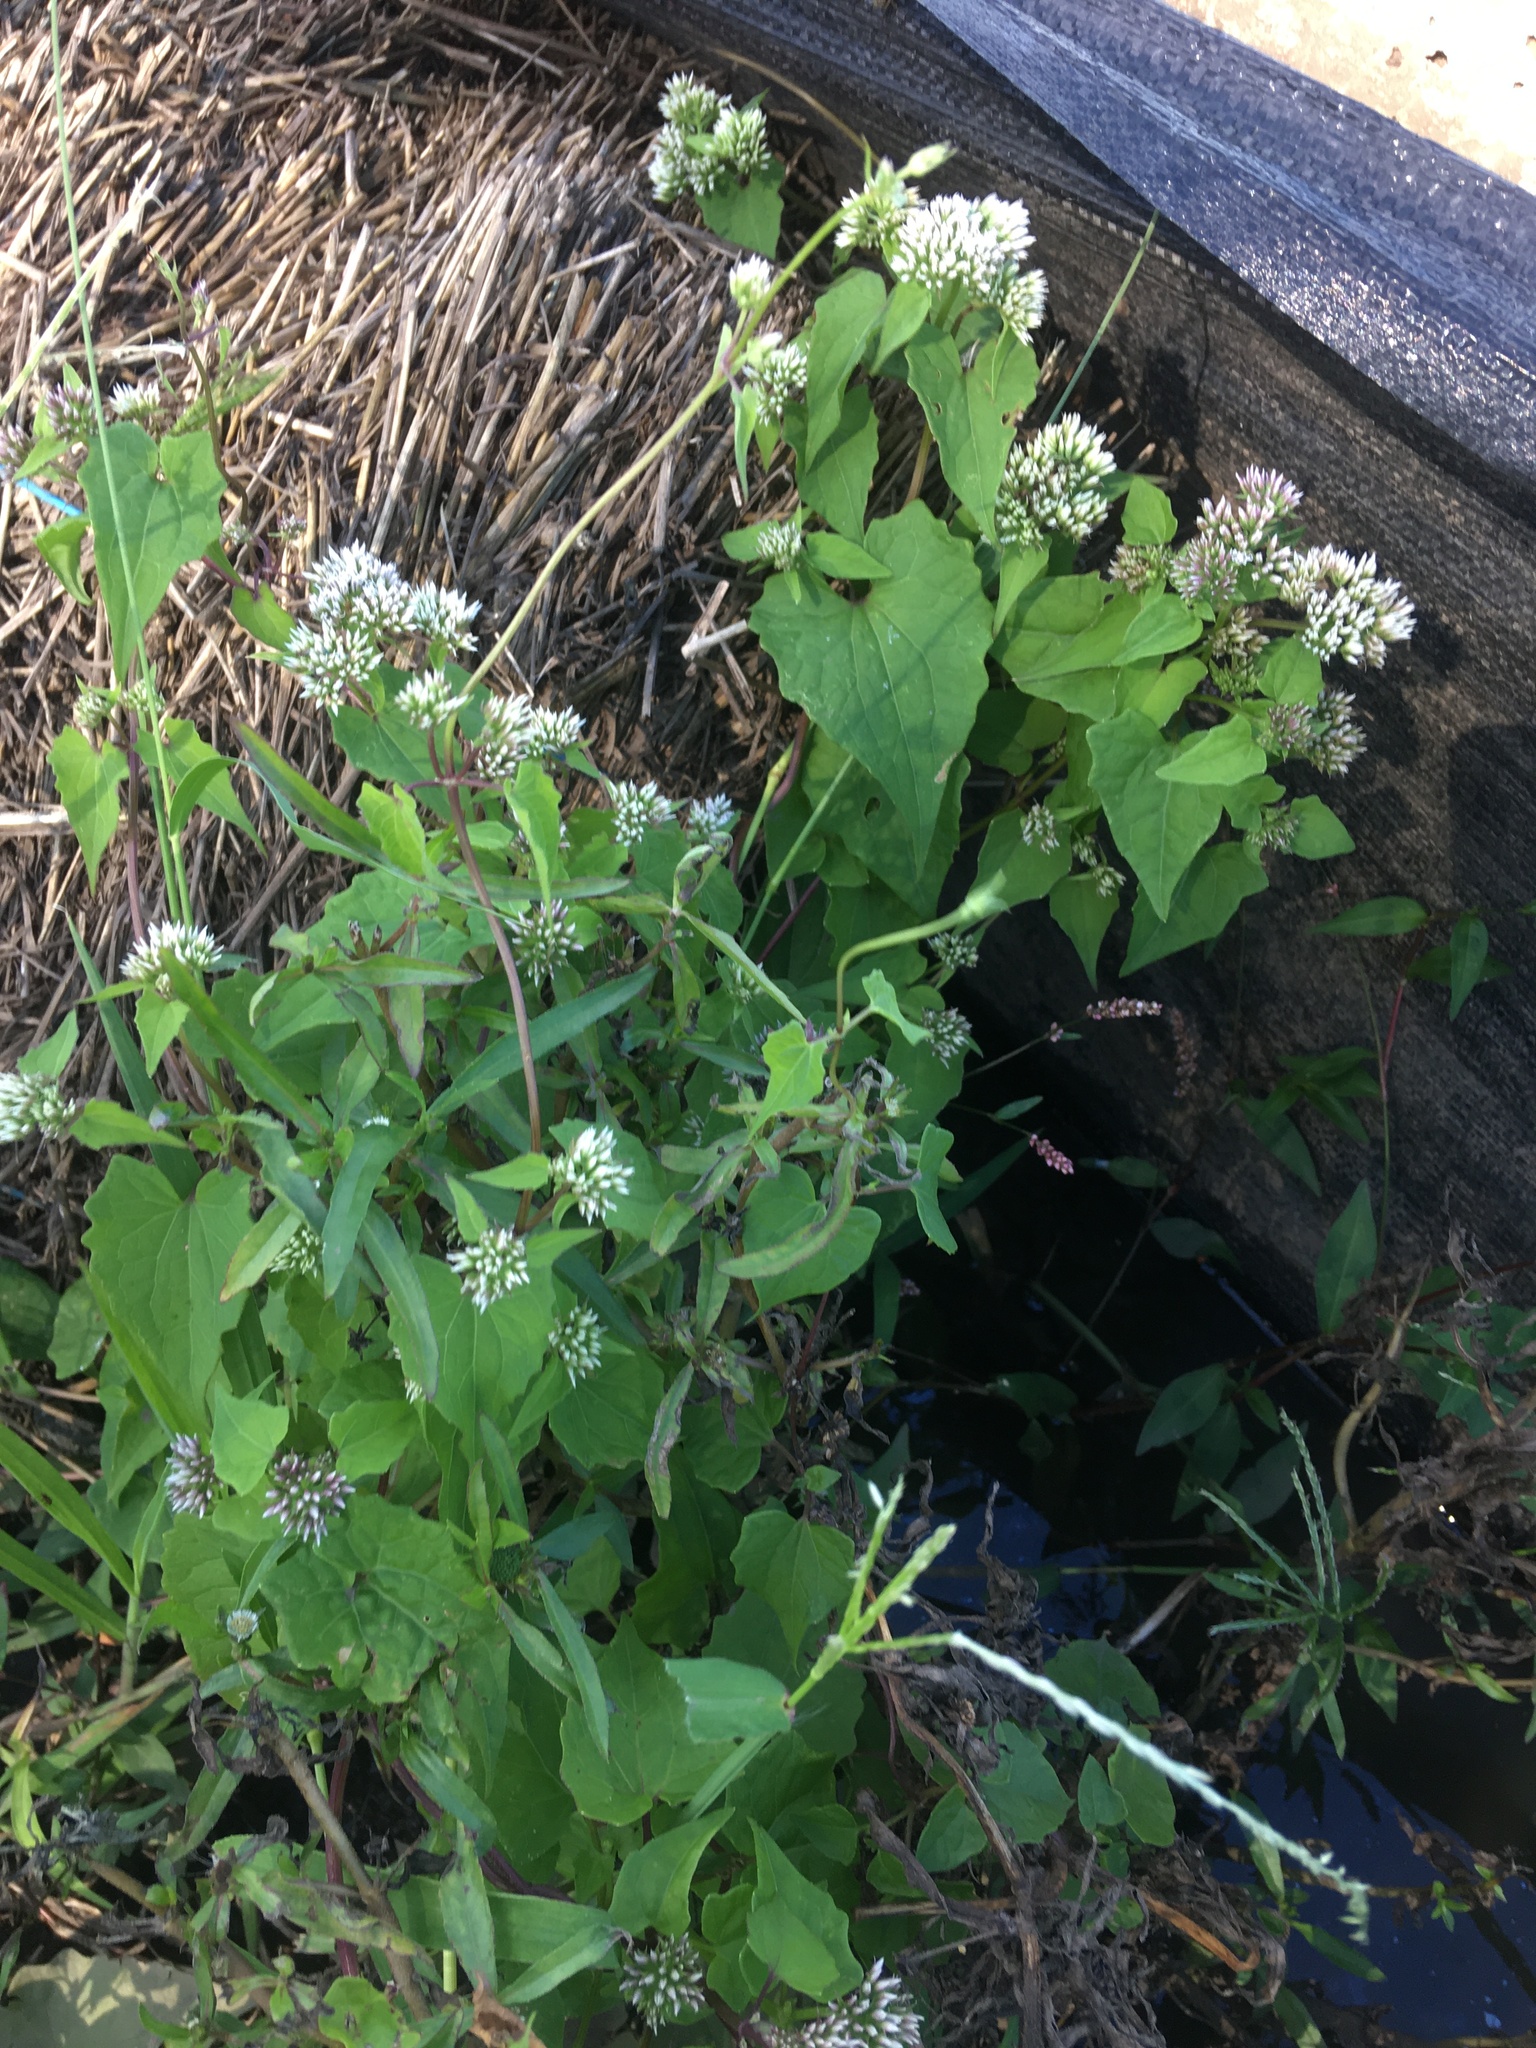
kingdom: Plantae
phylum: Tracheophyta
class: Magnoliopsida
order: Asterales
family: Asteraceae
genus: Mikania
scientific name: Mikania scandens
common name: Climbing hempvine
